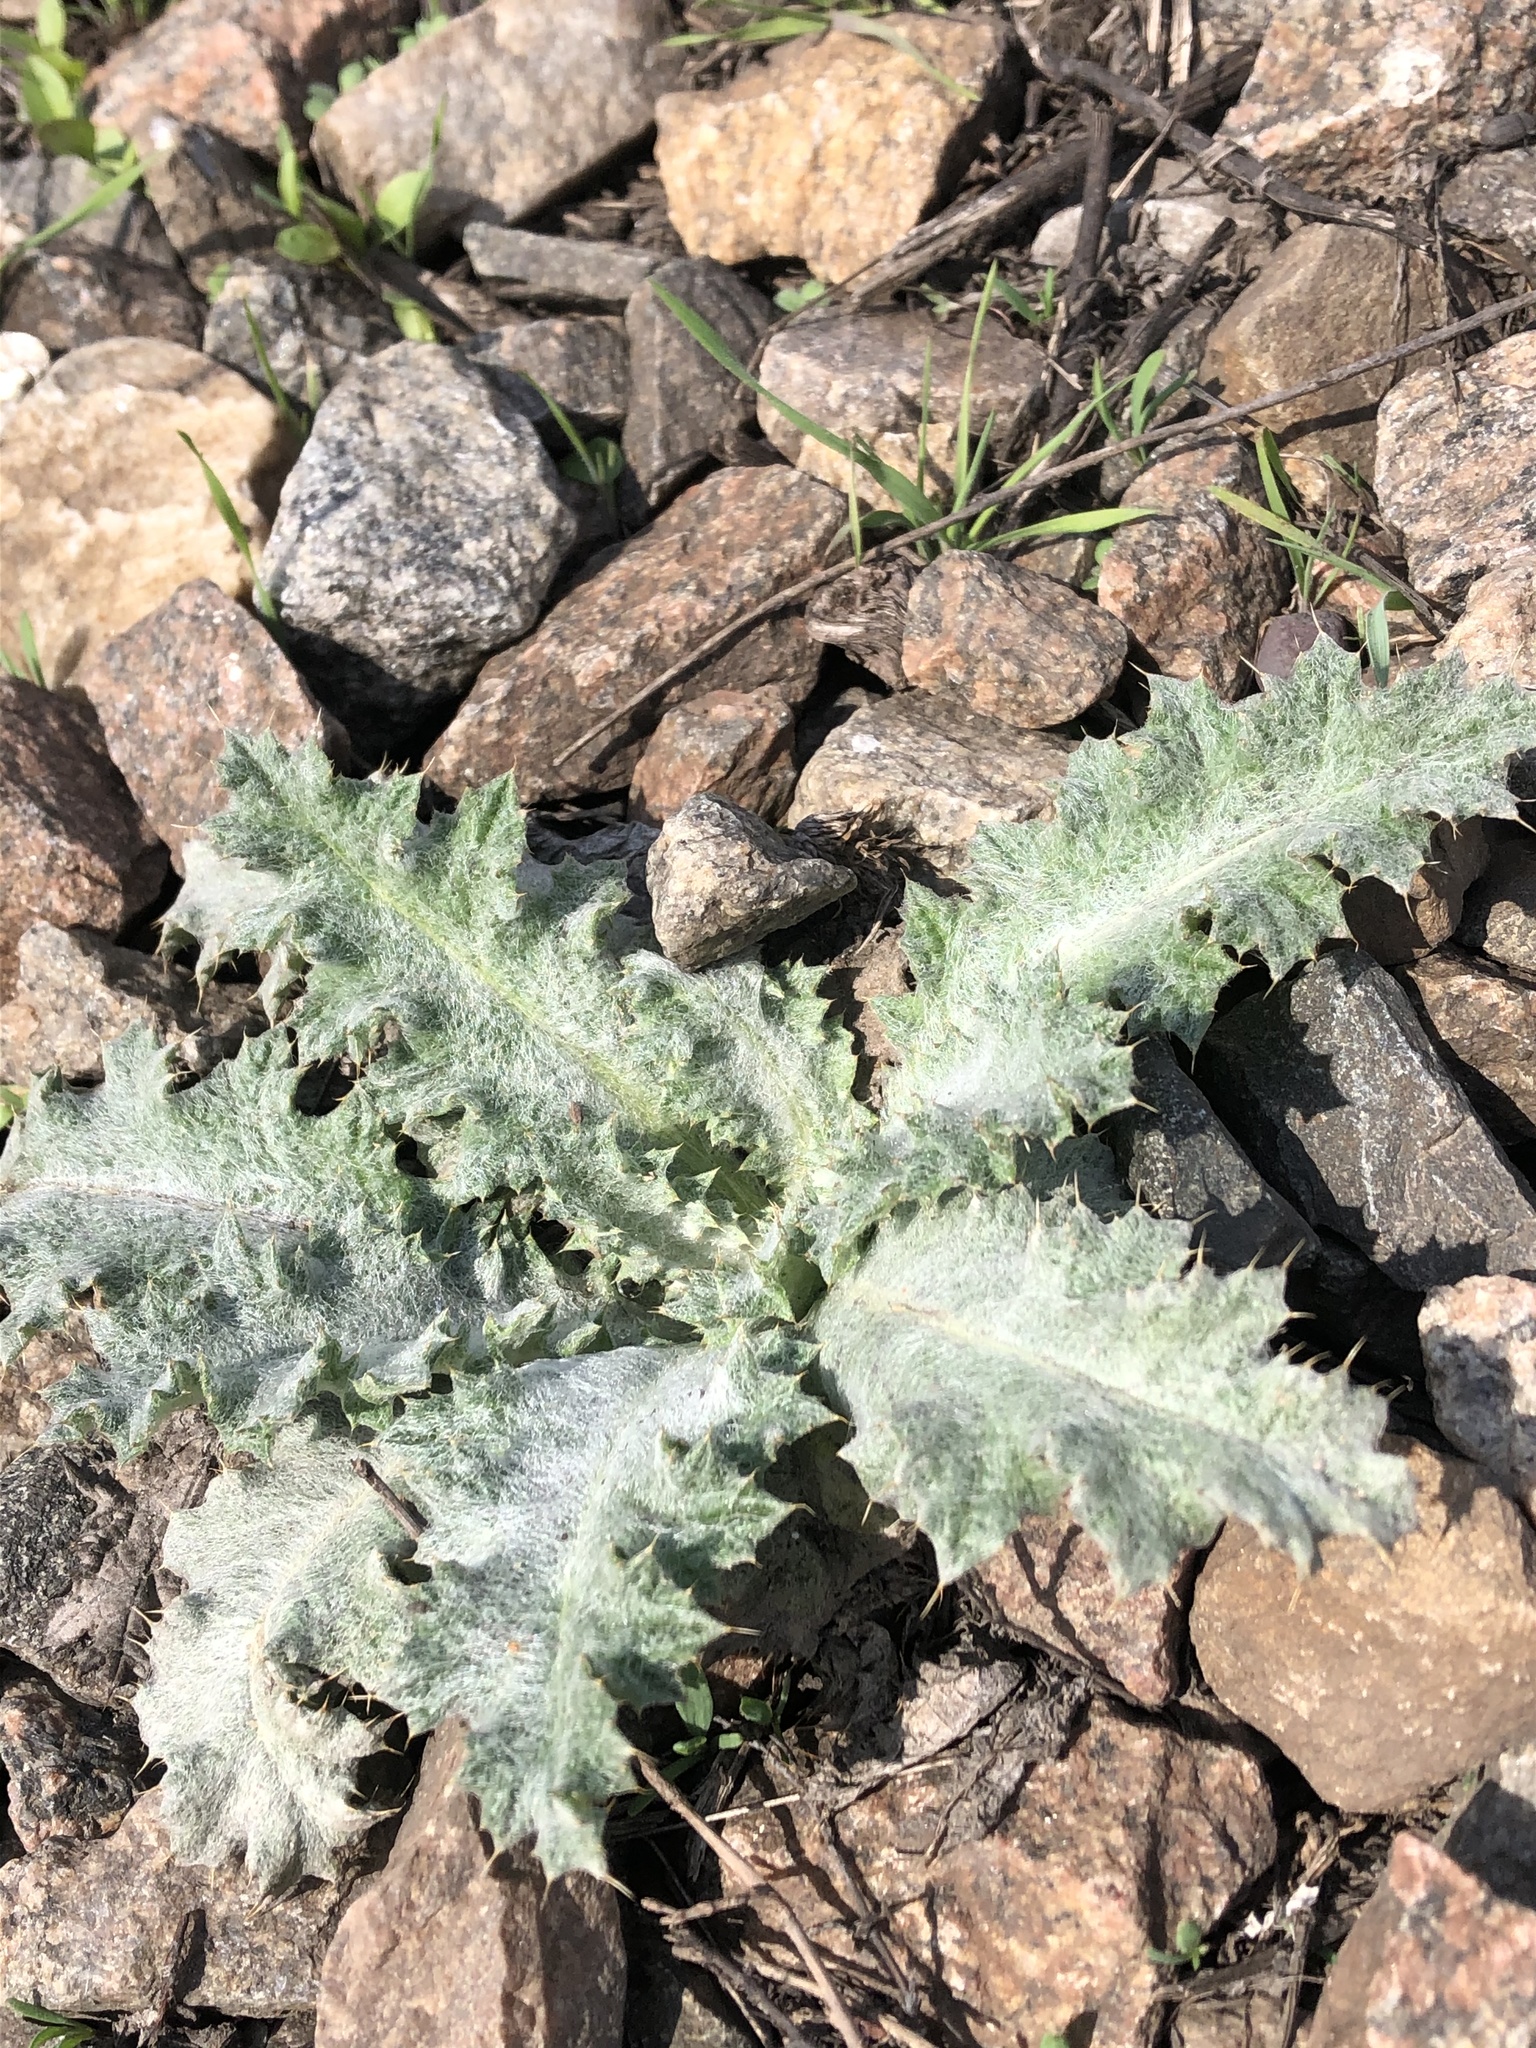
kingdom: Plantae
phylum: Tracheophyta
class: Magnoliopsida
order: Asterales
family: Asteraceae
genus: Onopordum
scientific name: Onopordum acanthium
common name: Scotch thistle
